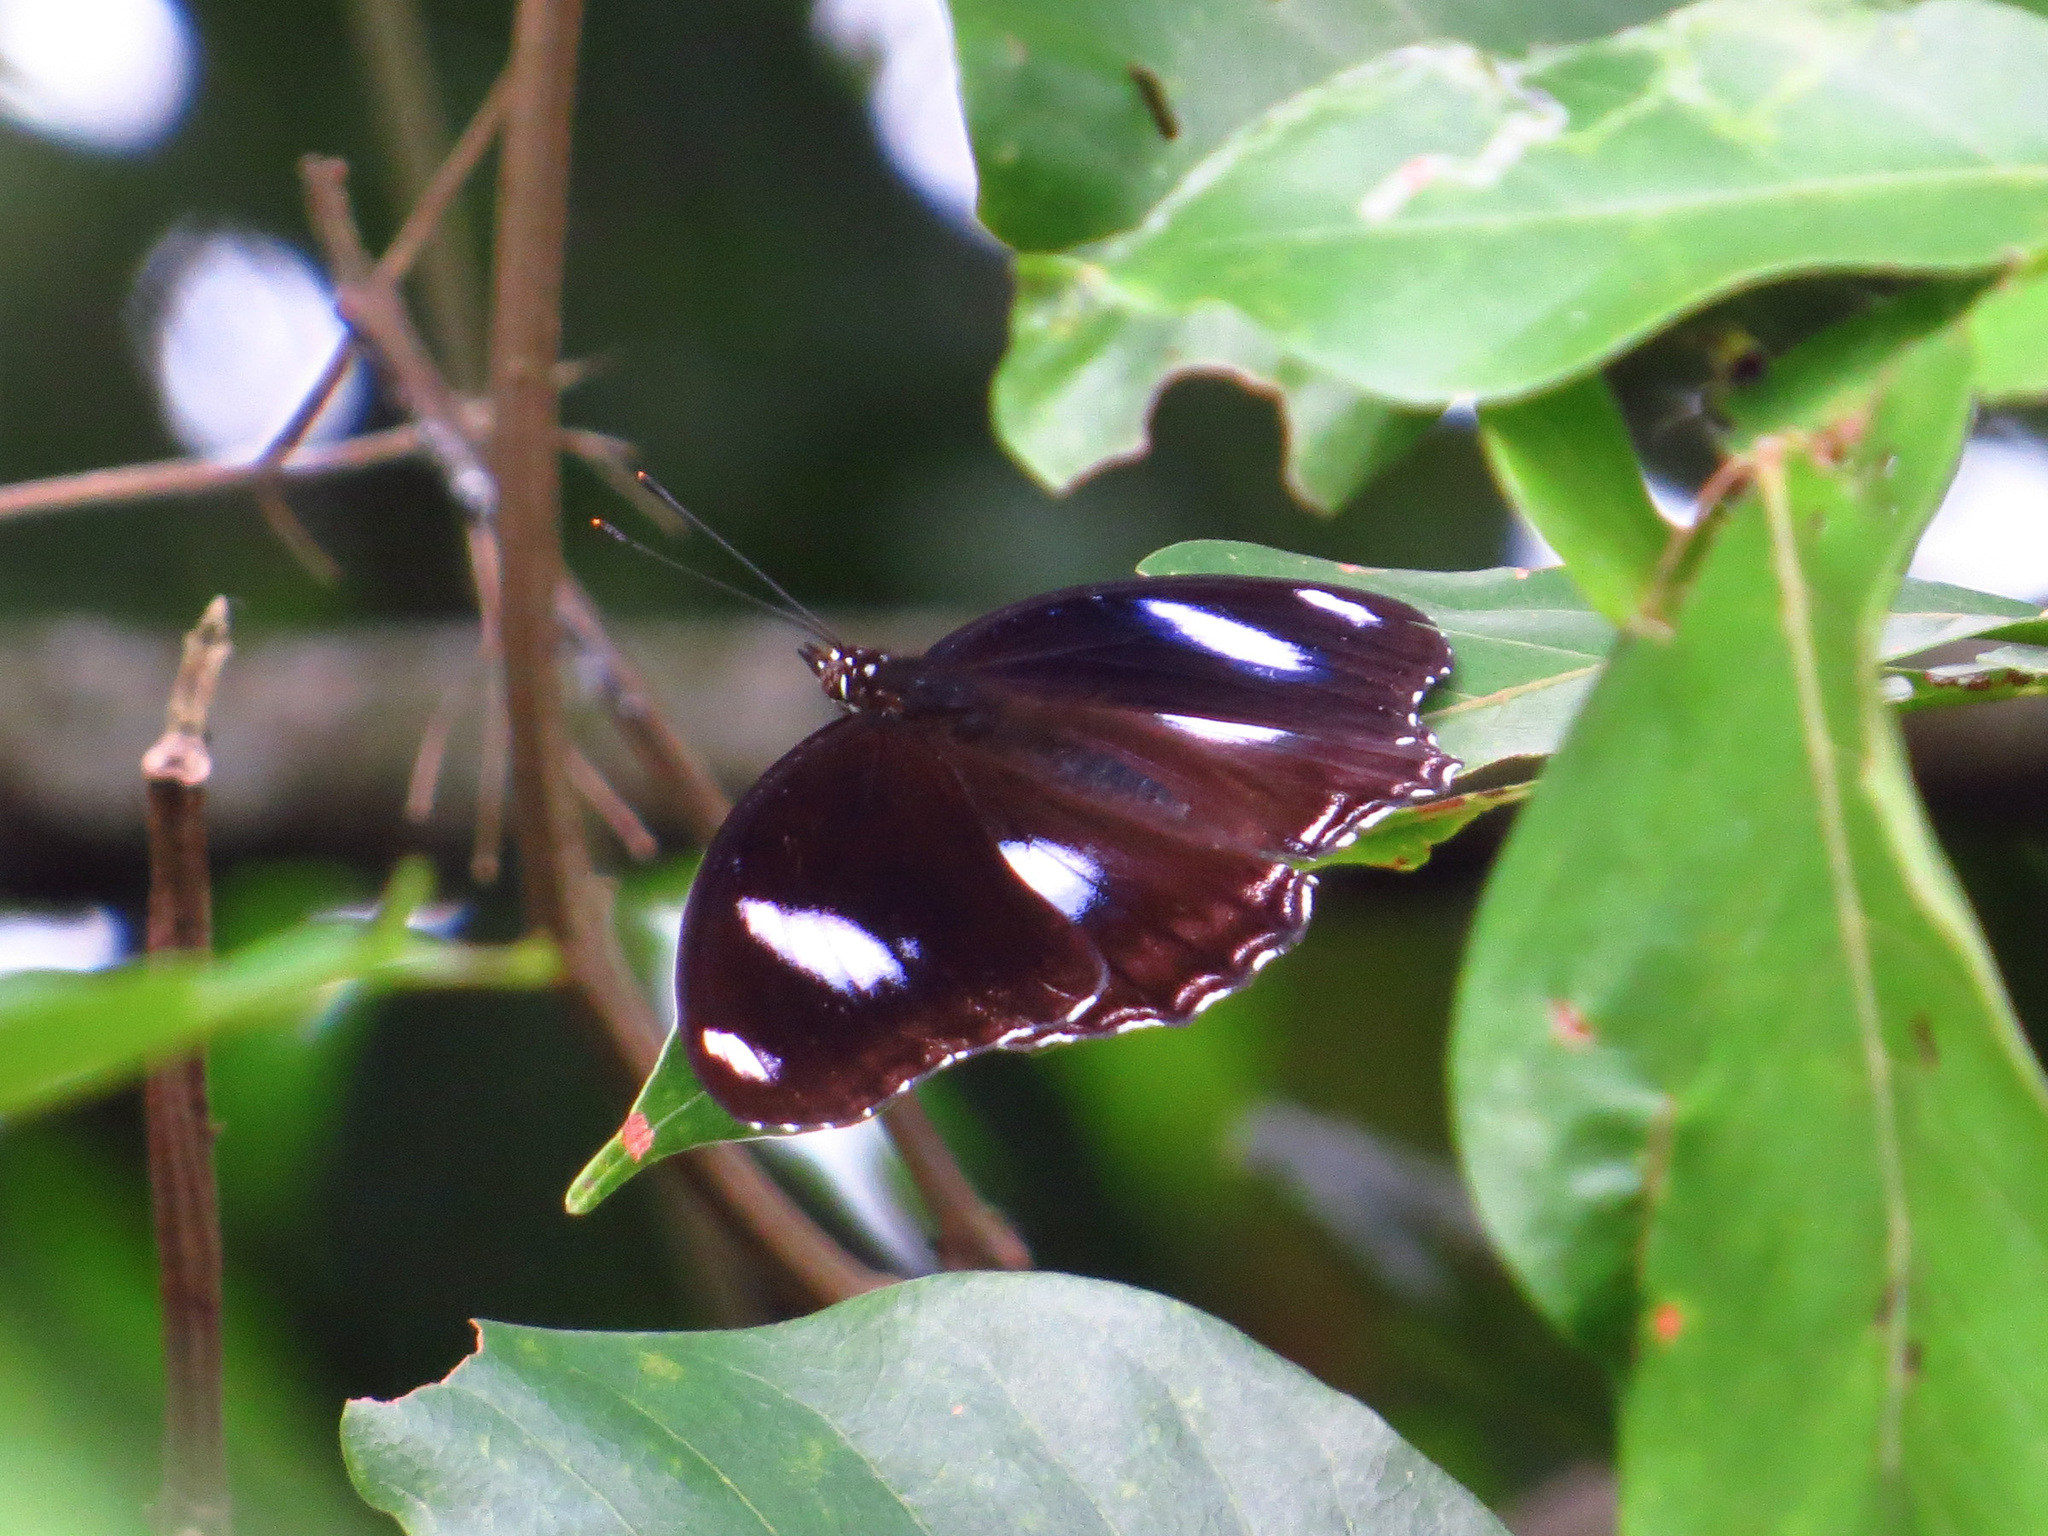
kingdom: Animalia
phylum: Arthropoda
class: Insecta
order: Lepidoptera
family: Nymphalidae
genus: Hypolimnas
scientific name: Hypolimnas bolina
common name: Great eggfly
